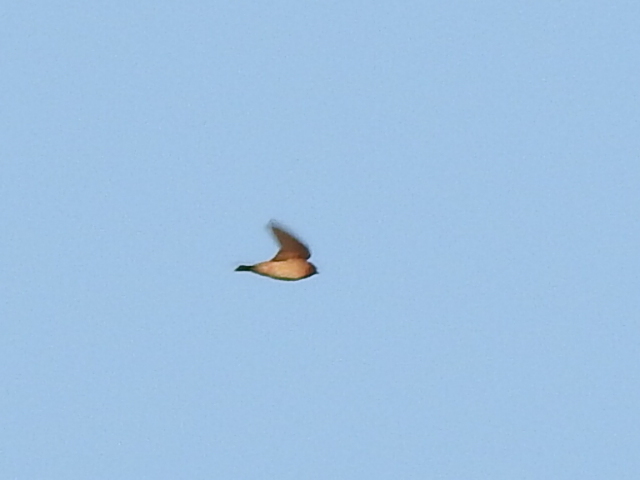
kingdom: Animalia
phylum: Chordata
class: Aves
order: Passeriformes
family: Hirundinidae
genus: Petrochelidon
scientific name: Petrochelidon pyrrhonota
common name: American cliff swallow
